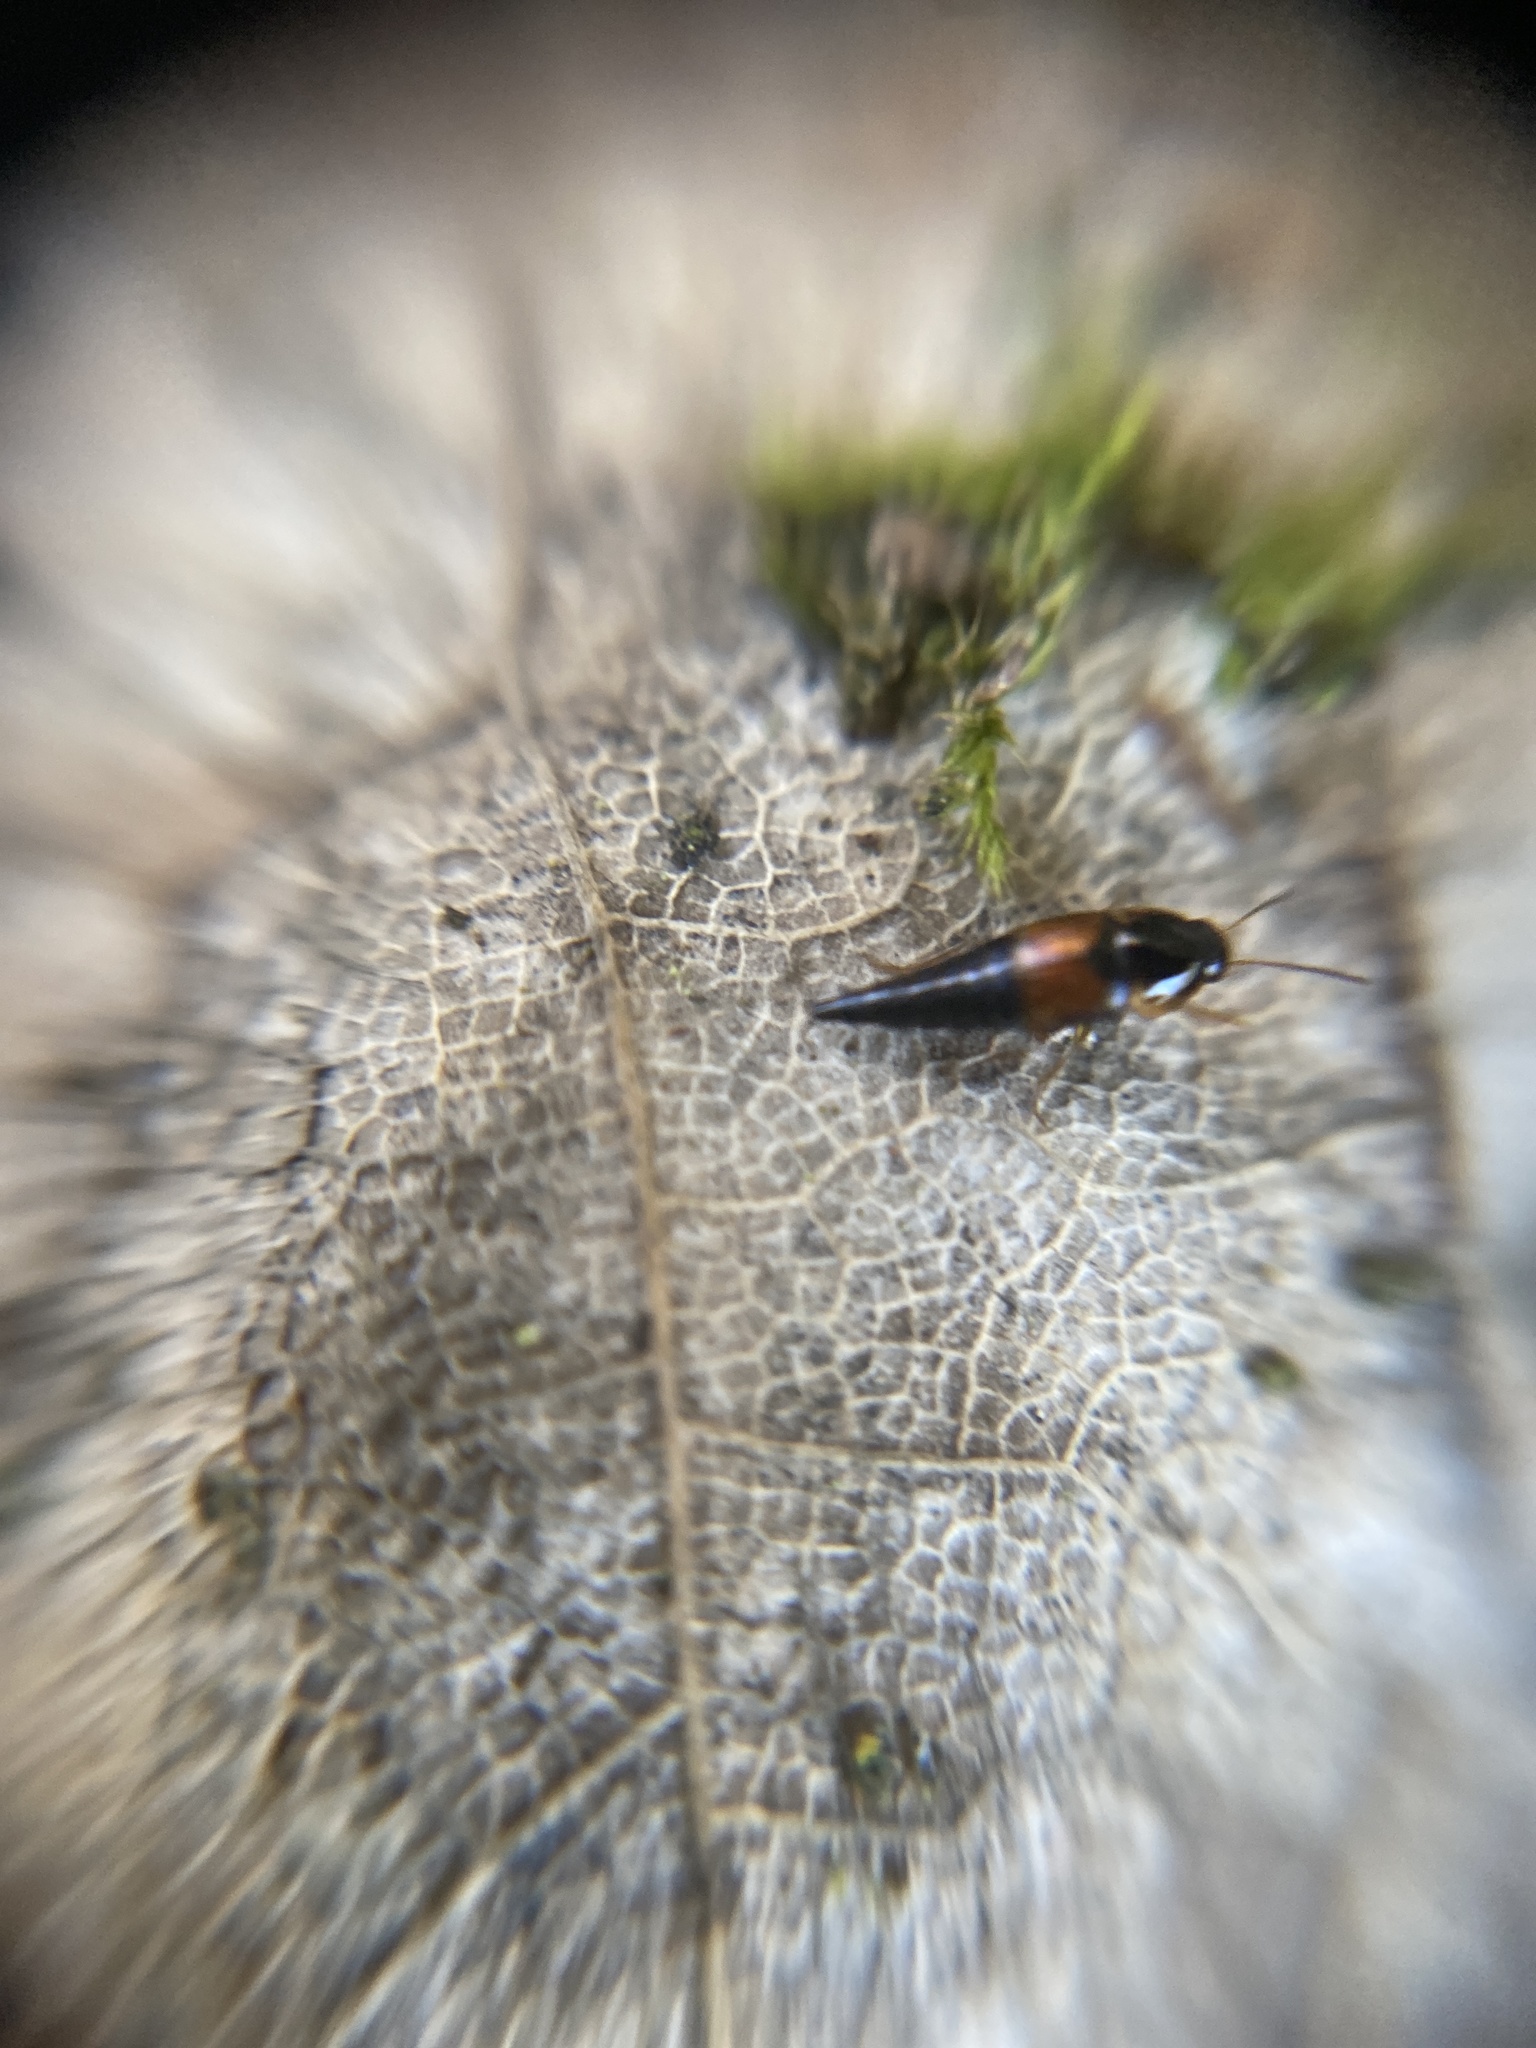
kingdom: Animalia
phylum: Arthropoda
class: Insecta
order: Coleoptera
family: Staphylinidae
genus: Tachyporus
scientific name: Tachyporus hypnorum
